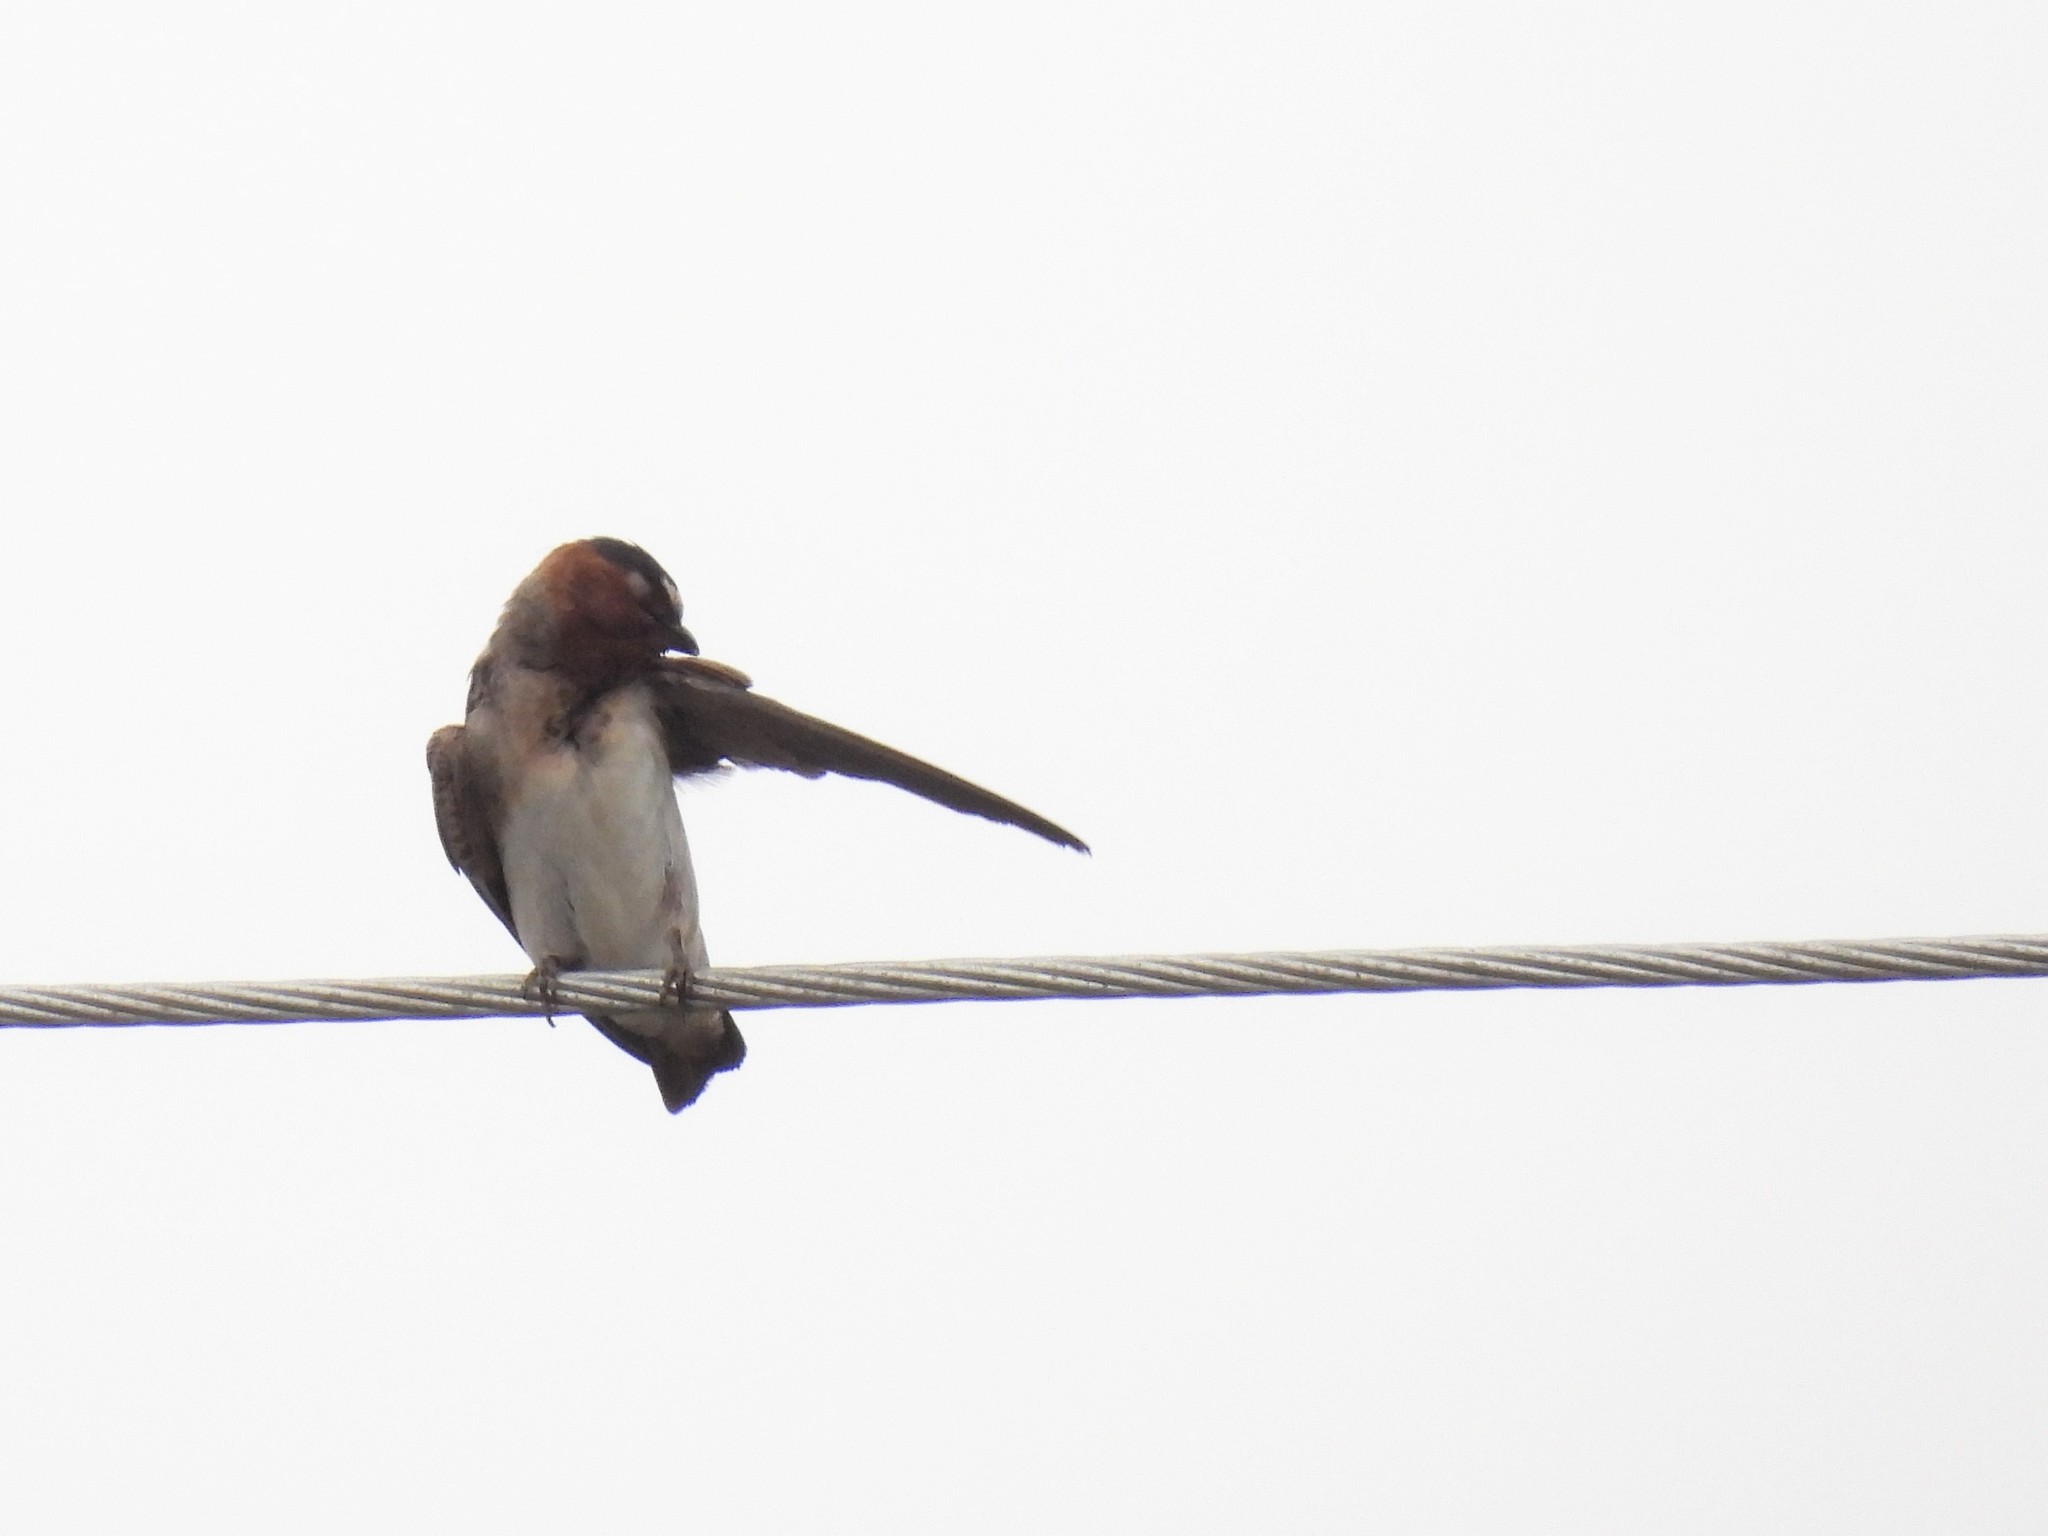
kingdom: Animalia
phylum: Chordata
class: Aves
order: Passeriformes
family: Hirundinidae
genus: Petrochelidon
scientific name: Petrochelidon pyrrhonota
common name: American cliff swallow
